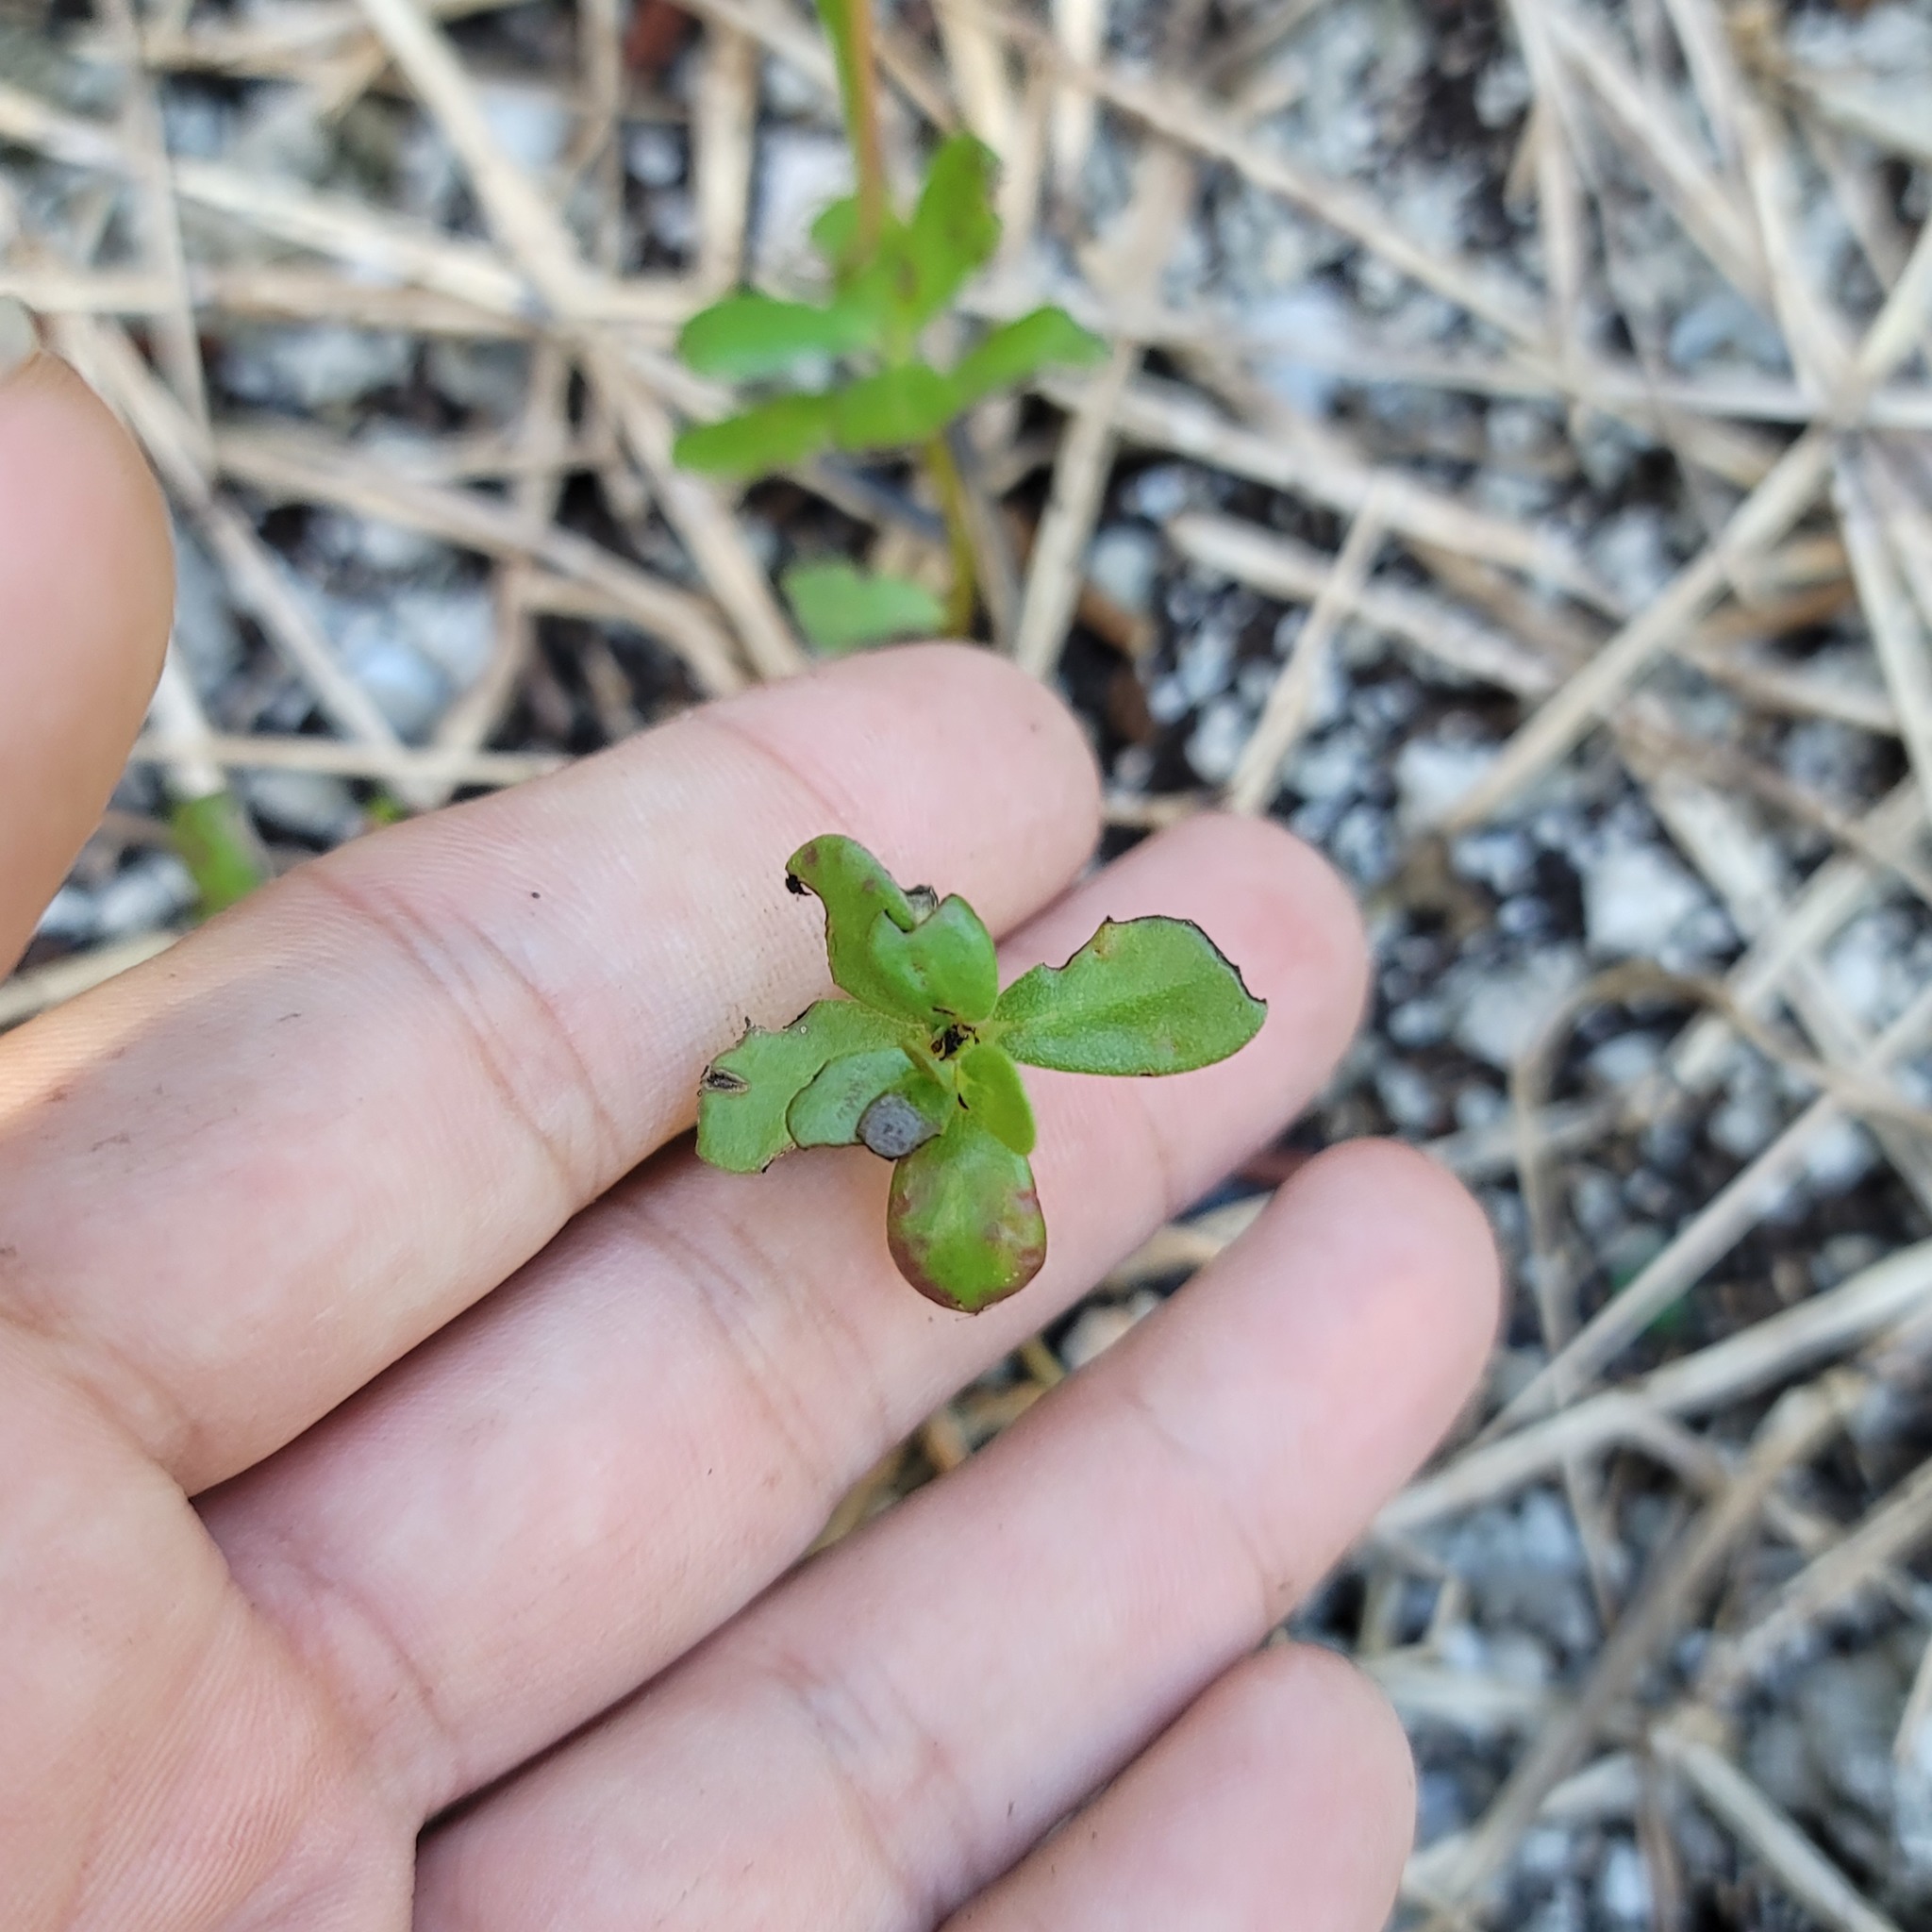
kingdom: Plantae
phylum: Tracheophyta
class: Magnoliopsida
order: Caryophyllales
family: Portulacaceae
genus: Portulaca
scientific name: Portulaca oleracea
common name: Common purslane
